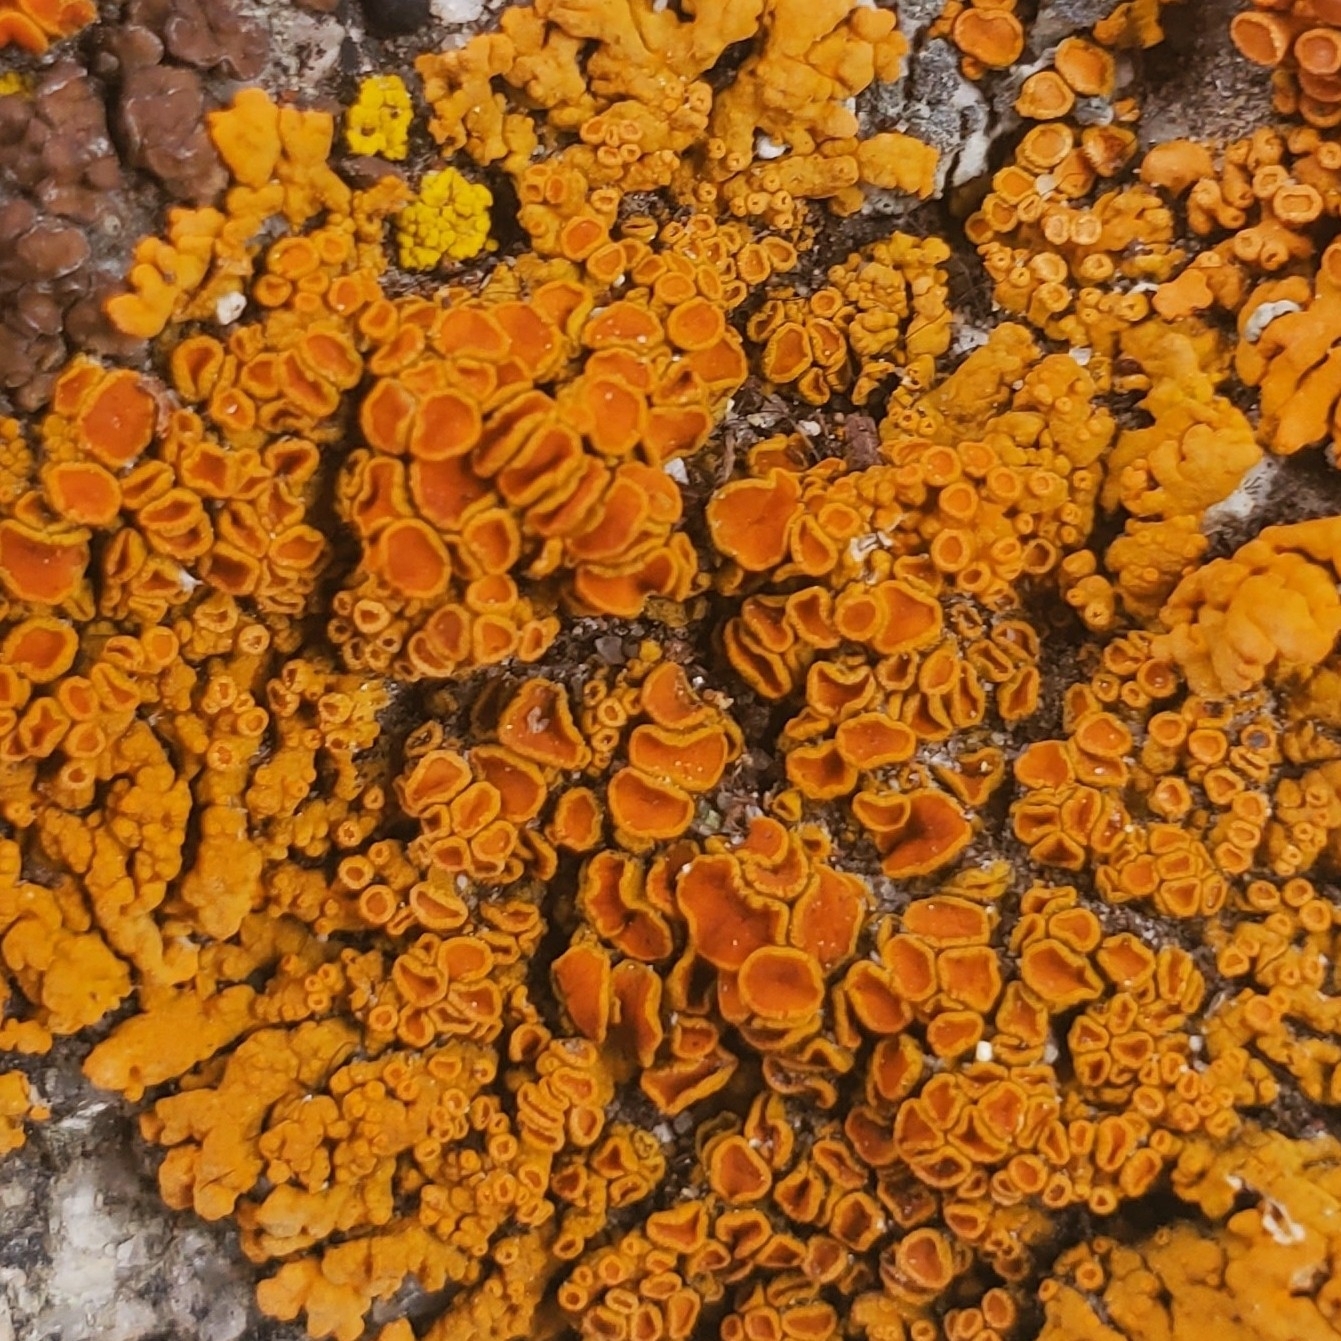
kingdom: Fungi
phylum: Ascomycota
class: Lecanoromycetes
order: Teloschistales
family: Teloschistaceae
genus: Xanthoria
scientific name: Xanthoria elegans
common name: Elegant sunburst lichen
